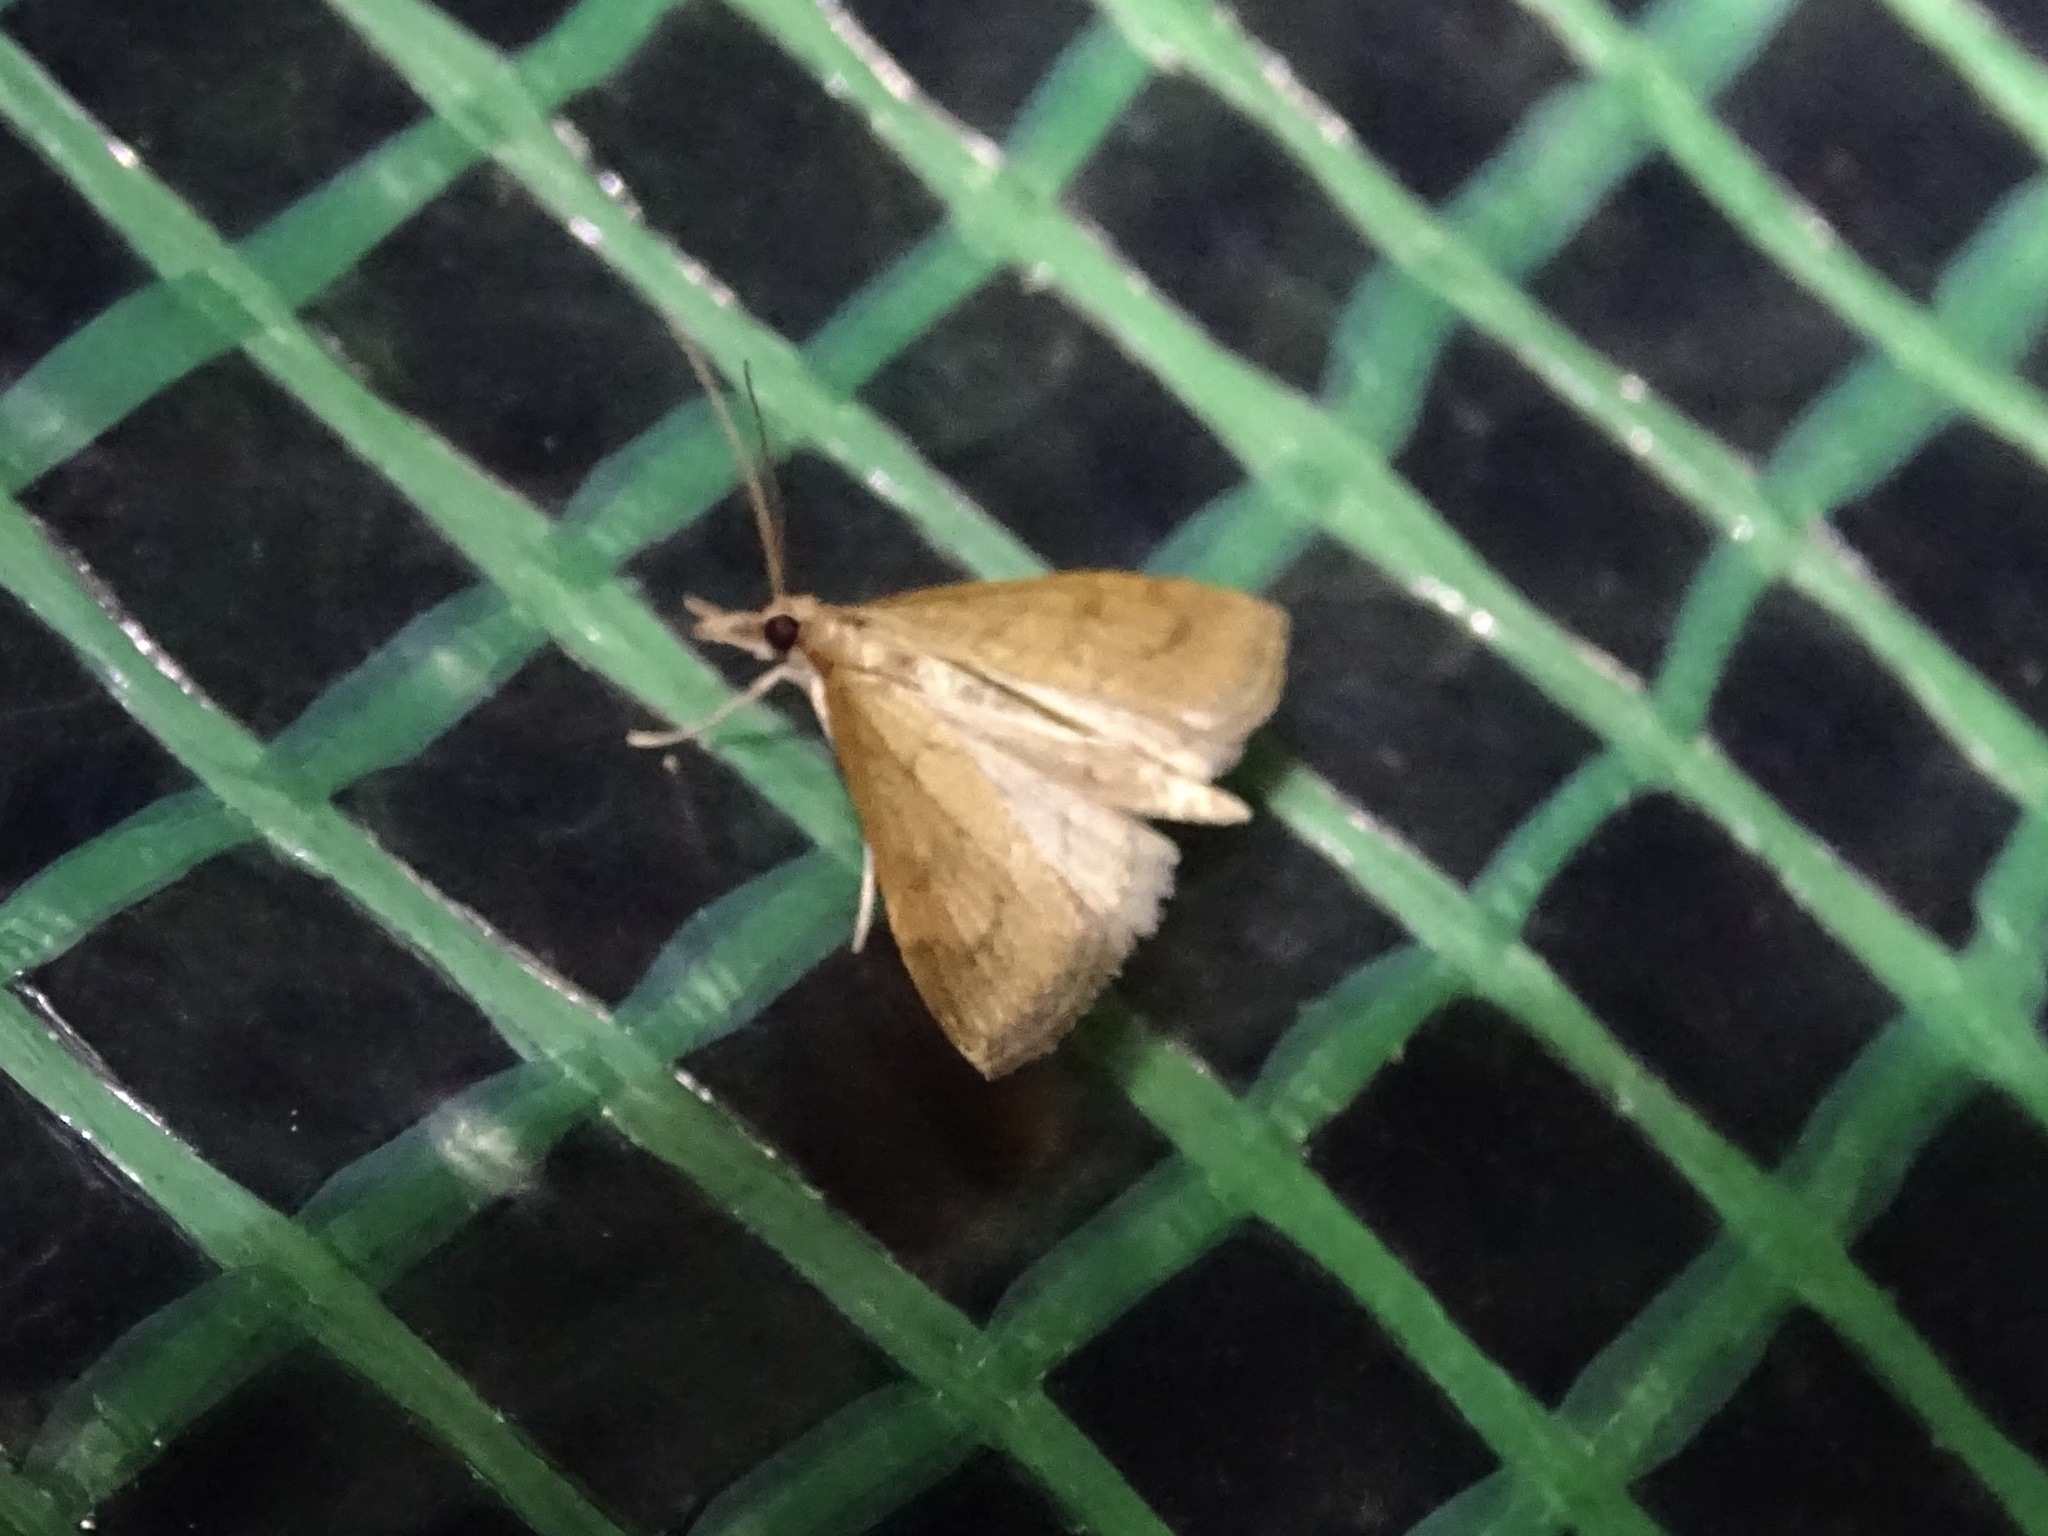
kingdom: Animalia
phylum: Arthropoda
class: Insecta
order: Lepidoptera
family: Crambidae
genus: Udea
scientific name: Udea rubigalis
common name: Celery leaftier moth
